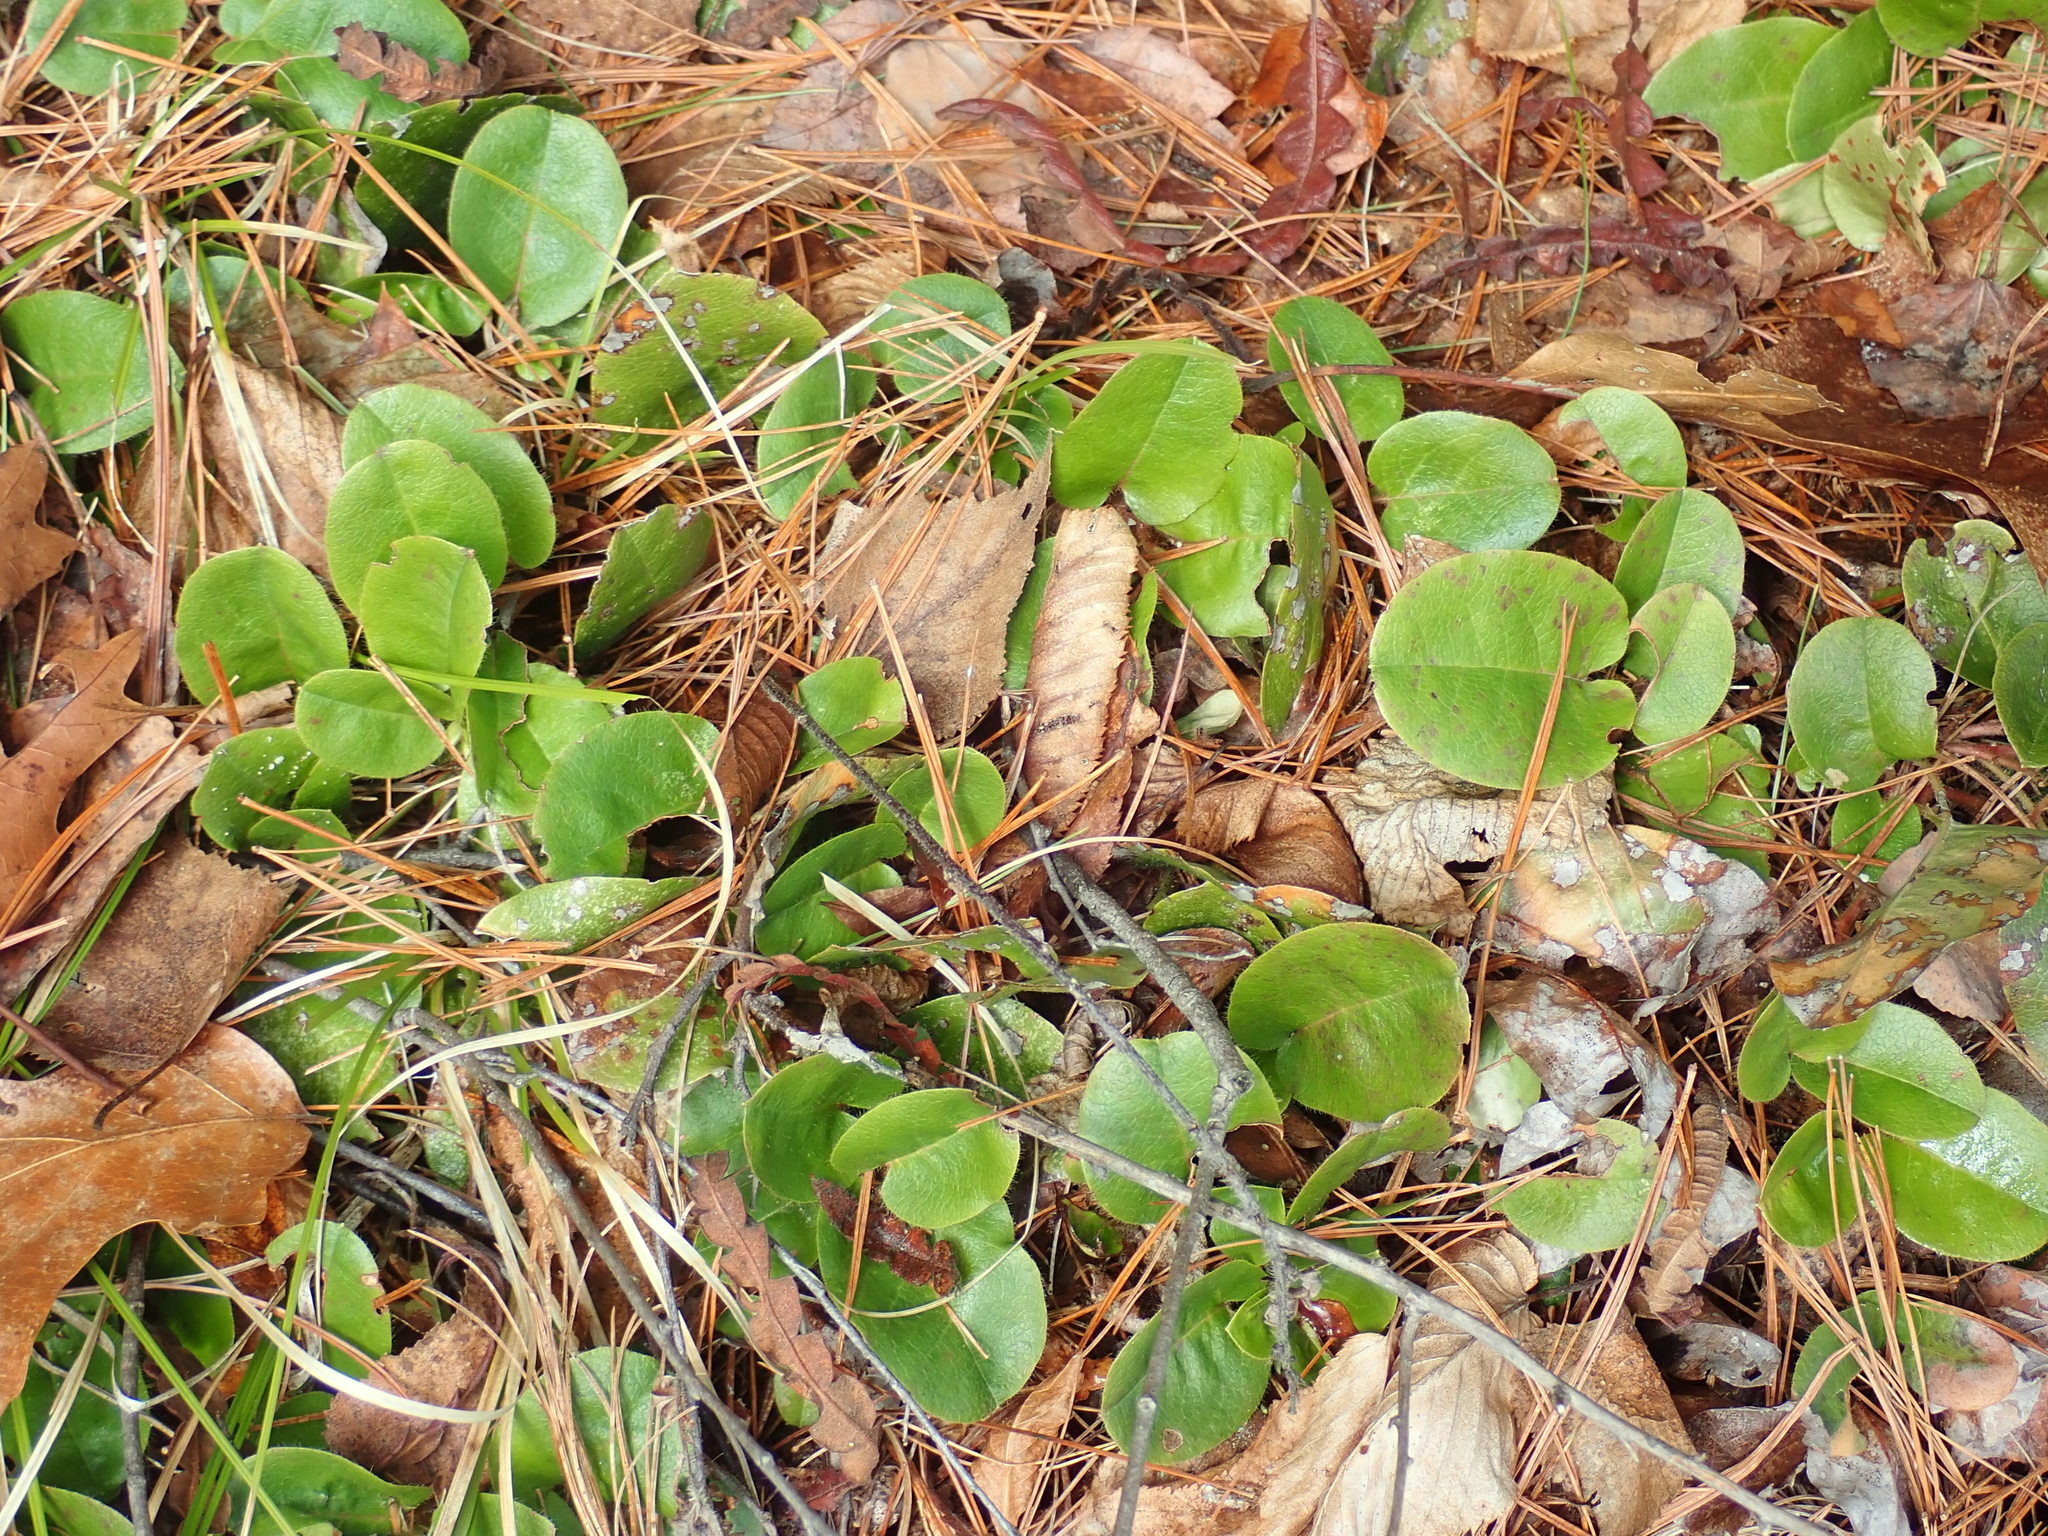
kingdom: Plantae
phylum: Tracheophyta
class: Magnoliopsida
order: Ericales
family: Ericaceae
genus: Epigaea
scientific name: Epigaea repens
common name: Gravelroot
